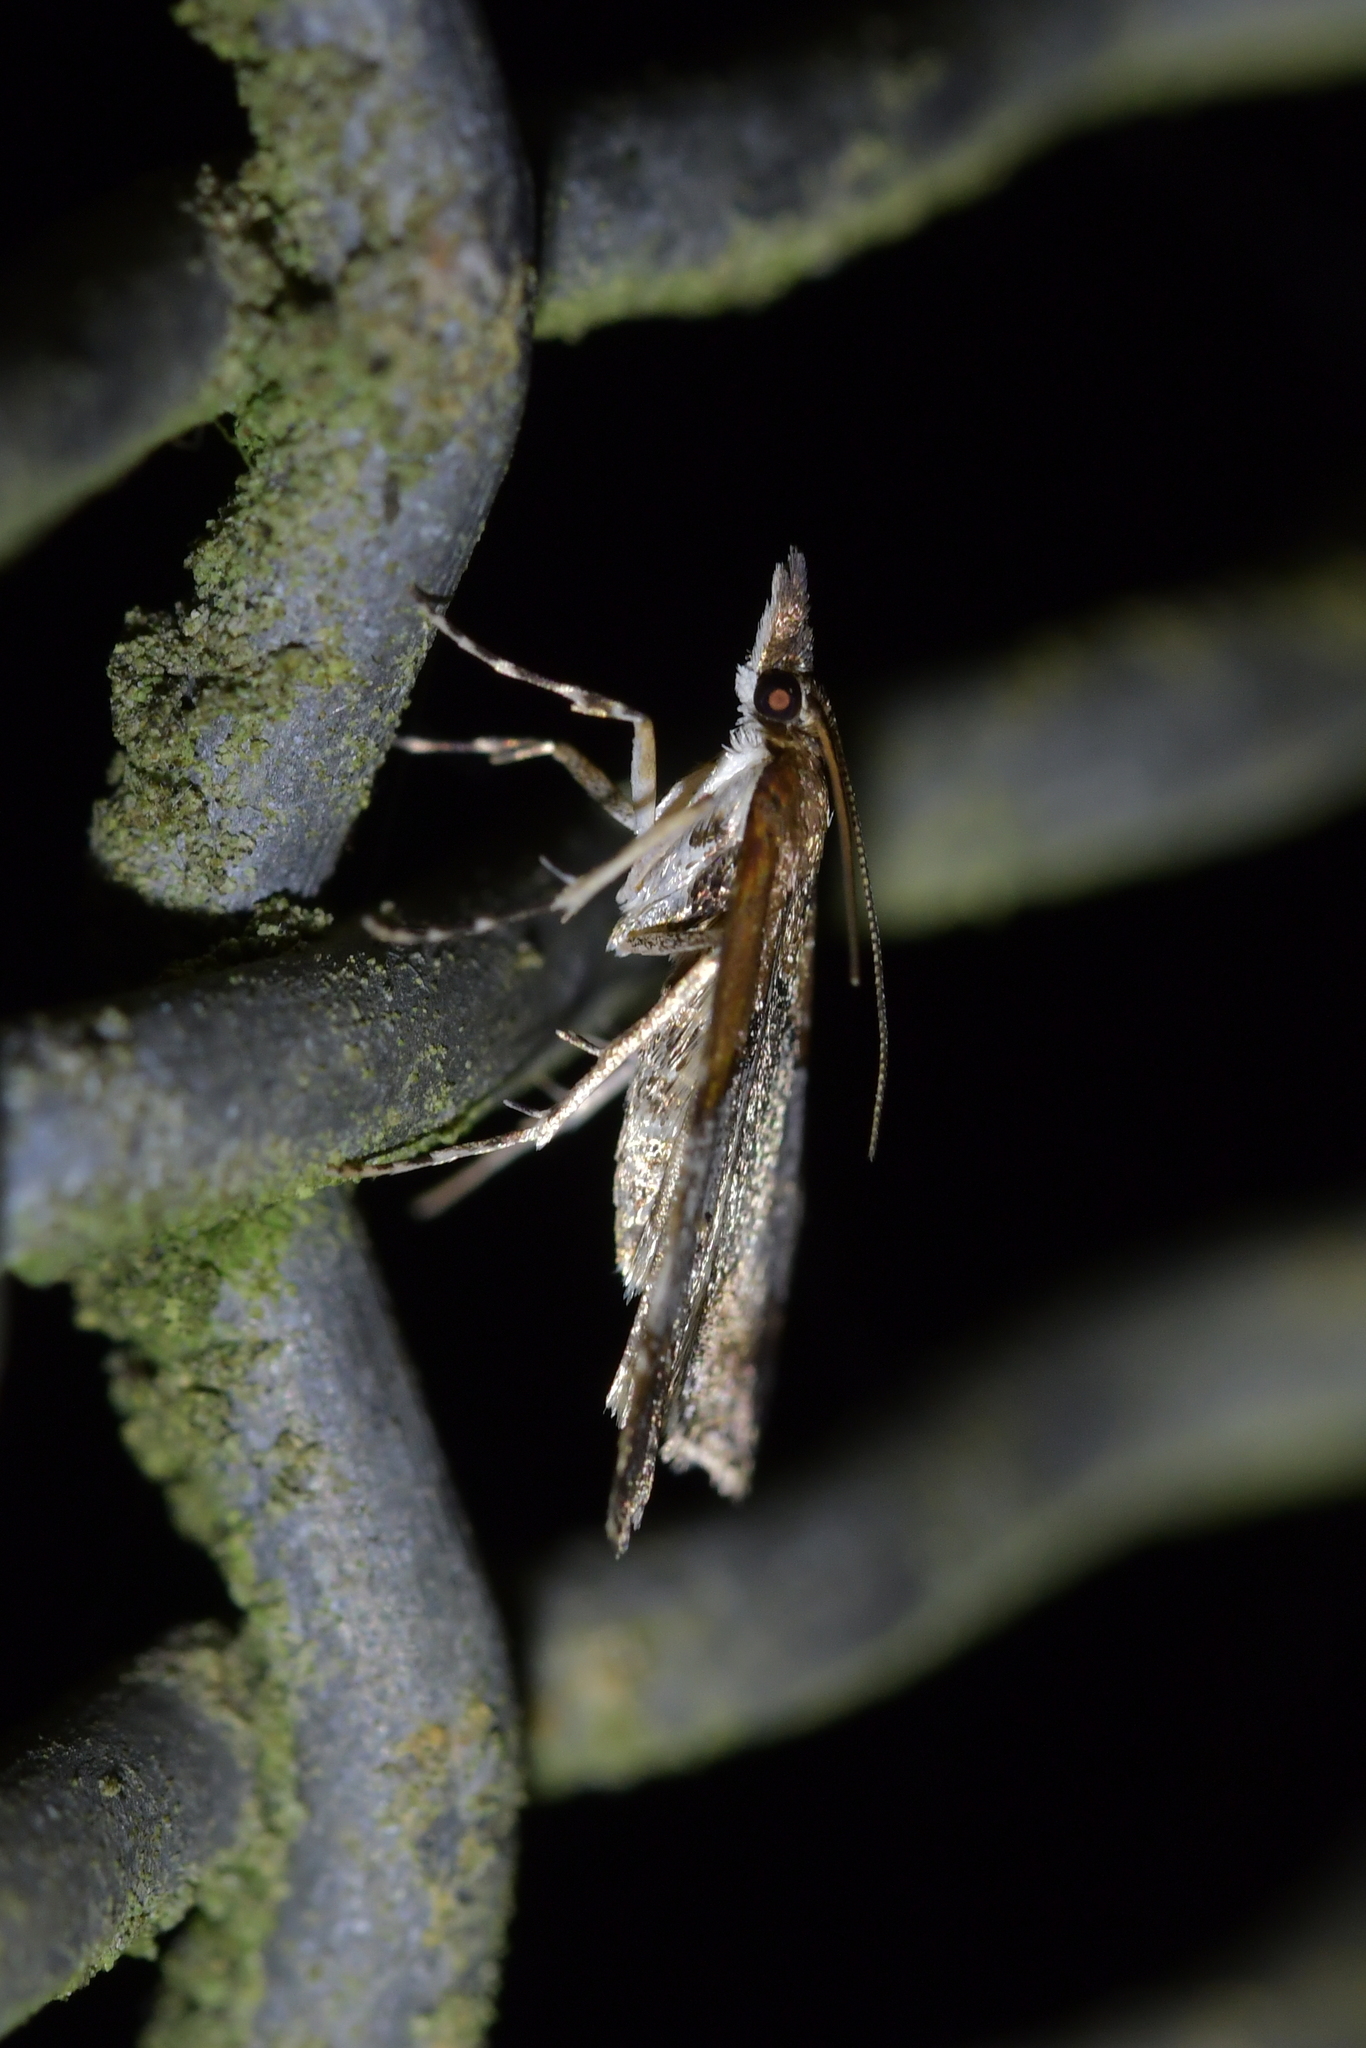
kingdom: Animalia
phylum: Arthropoda
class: Insecta
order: Lepidoptera
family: Crambidae
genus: Antiscopa
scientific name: Antiscopa epicomia
